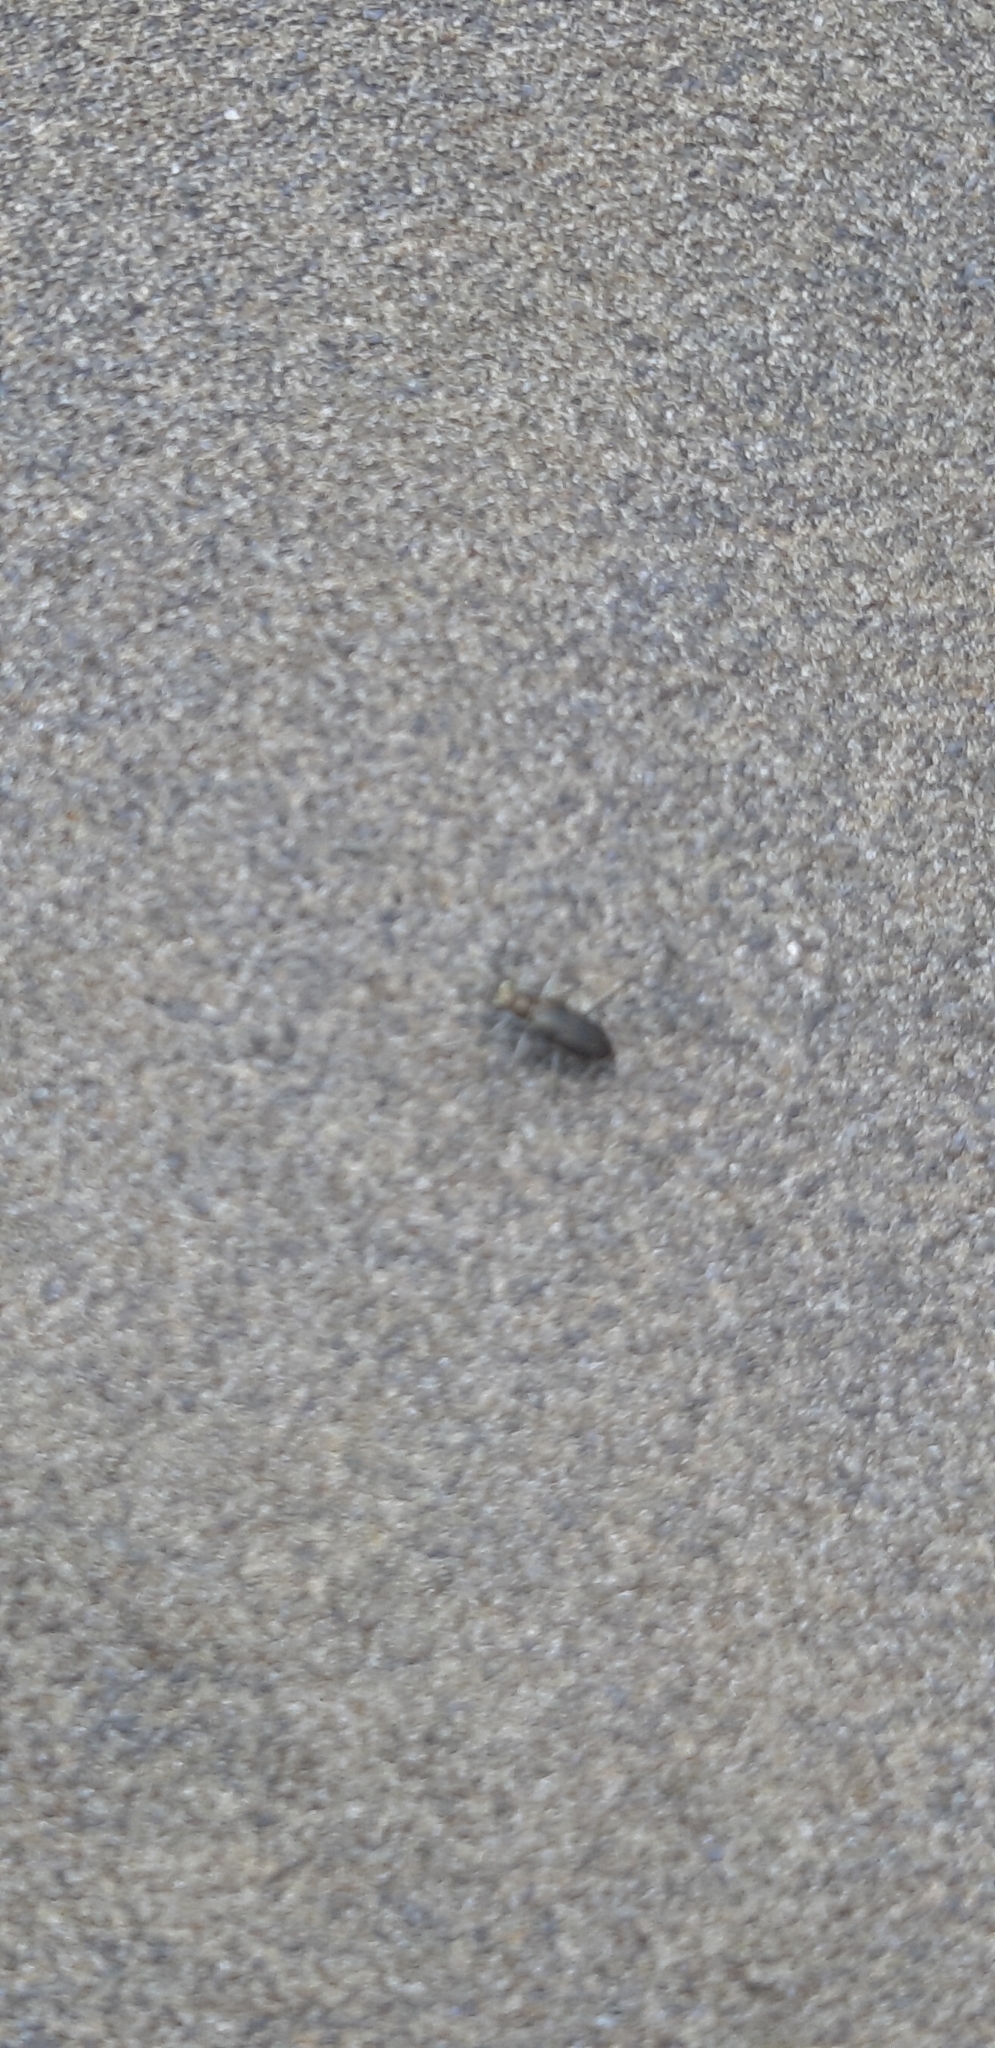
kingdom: Animalia
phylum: Arthropoda
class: Insecta
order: Coleoptera
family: Carabidae
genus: Abroscelis
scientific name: Abroscelis anchoralis
